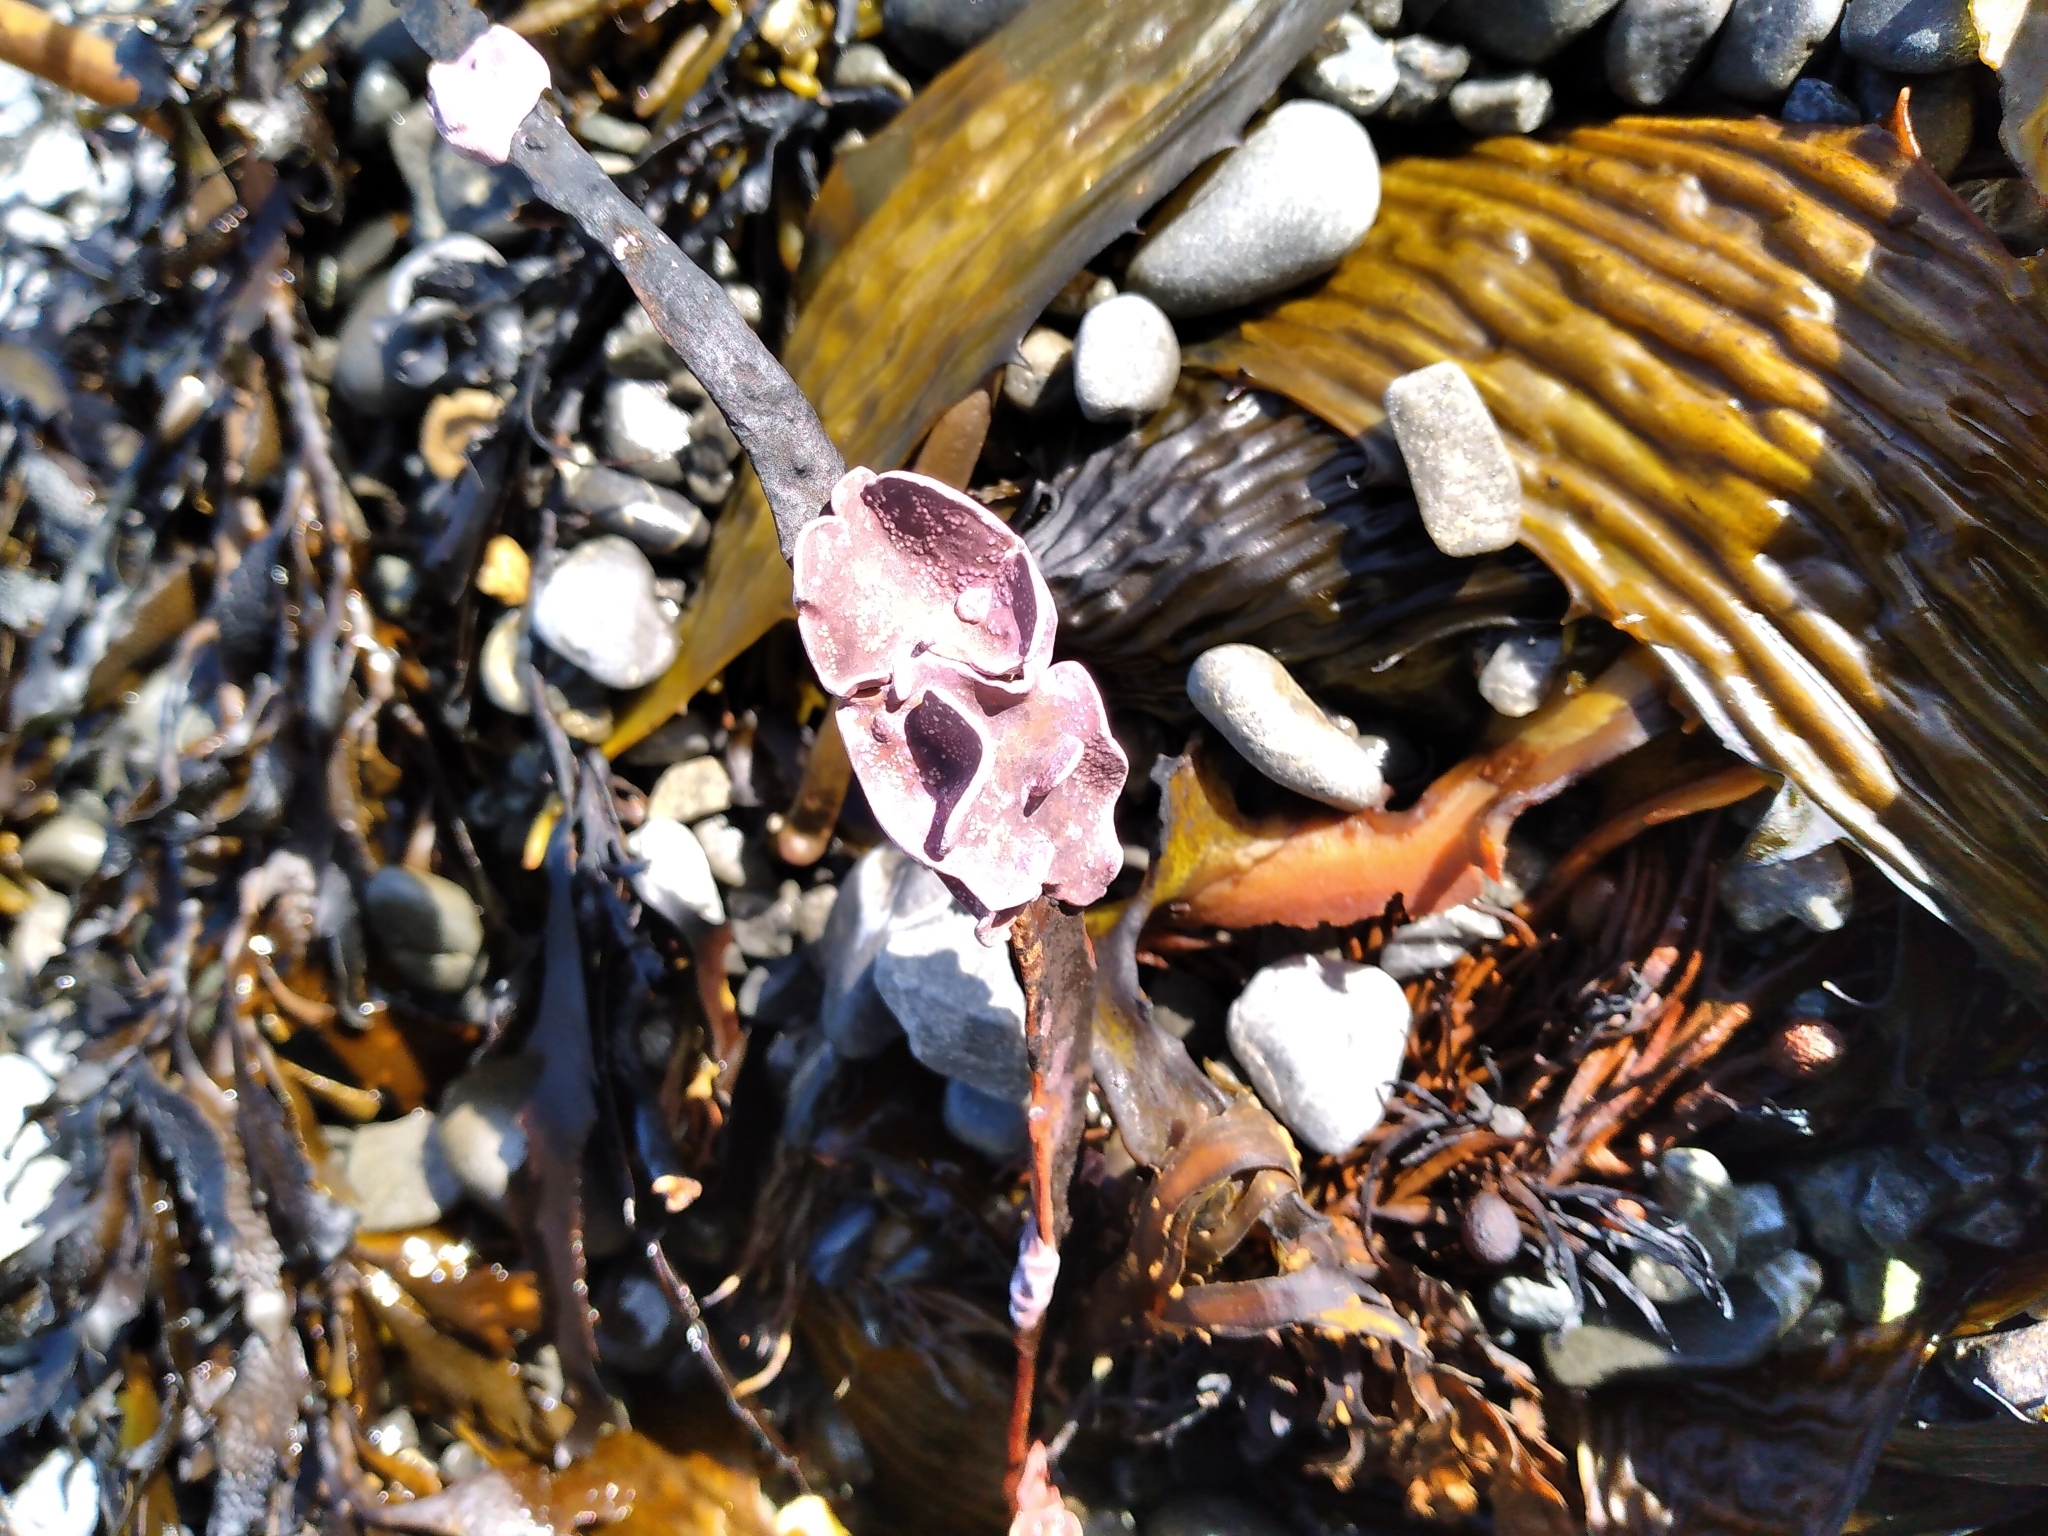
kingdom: Plantae
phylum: Rhodophyta
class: Florideophyceae
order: Corallinales
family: Lithophyllaceae
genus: Lithophyllum
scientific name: Lithophyllum carpophylli
